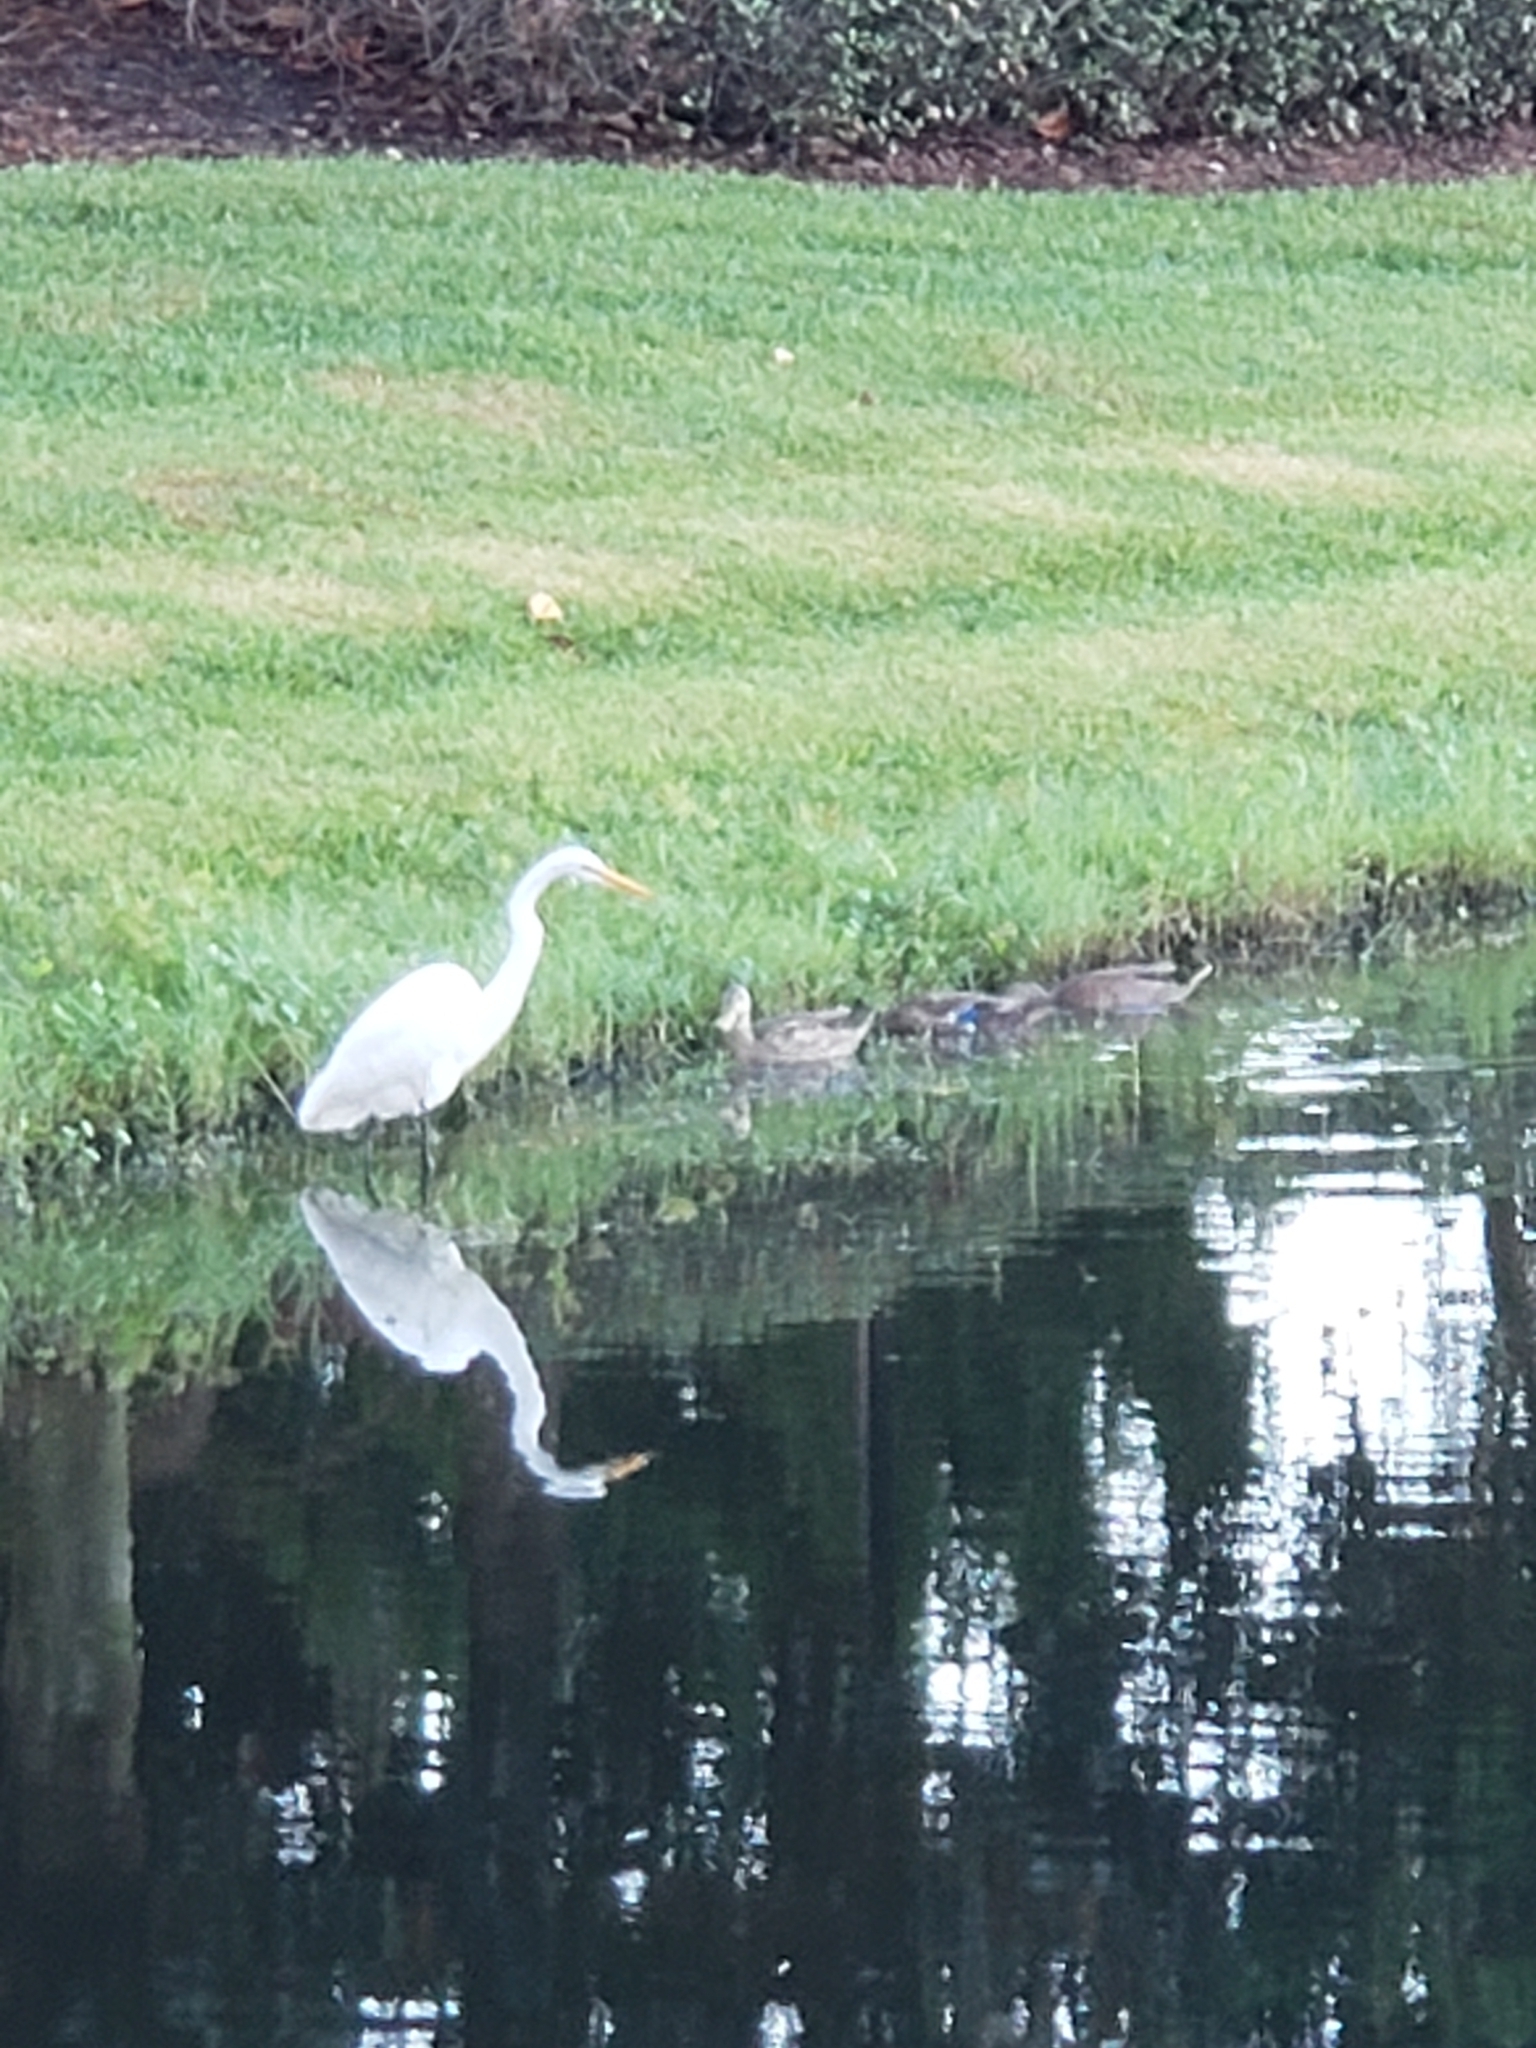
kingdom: Animalia
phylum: Chordata
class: Aves
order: Pelecaniformes
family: Ardeidae
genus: Ardea
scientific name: Ardea alba
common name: Great egret
